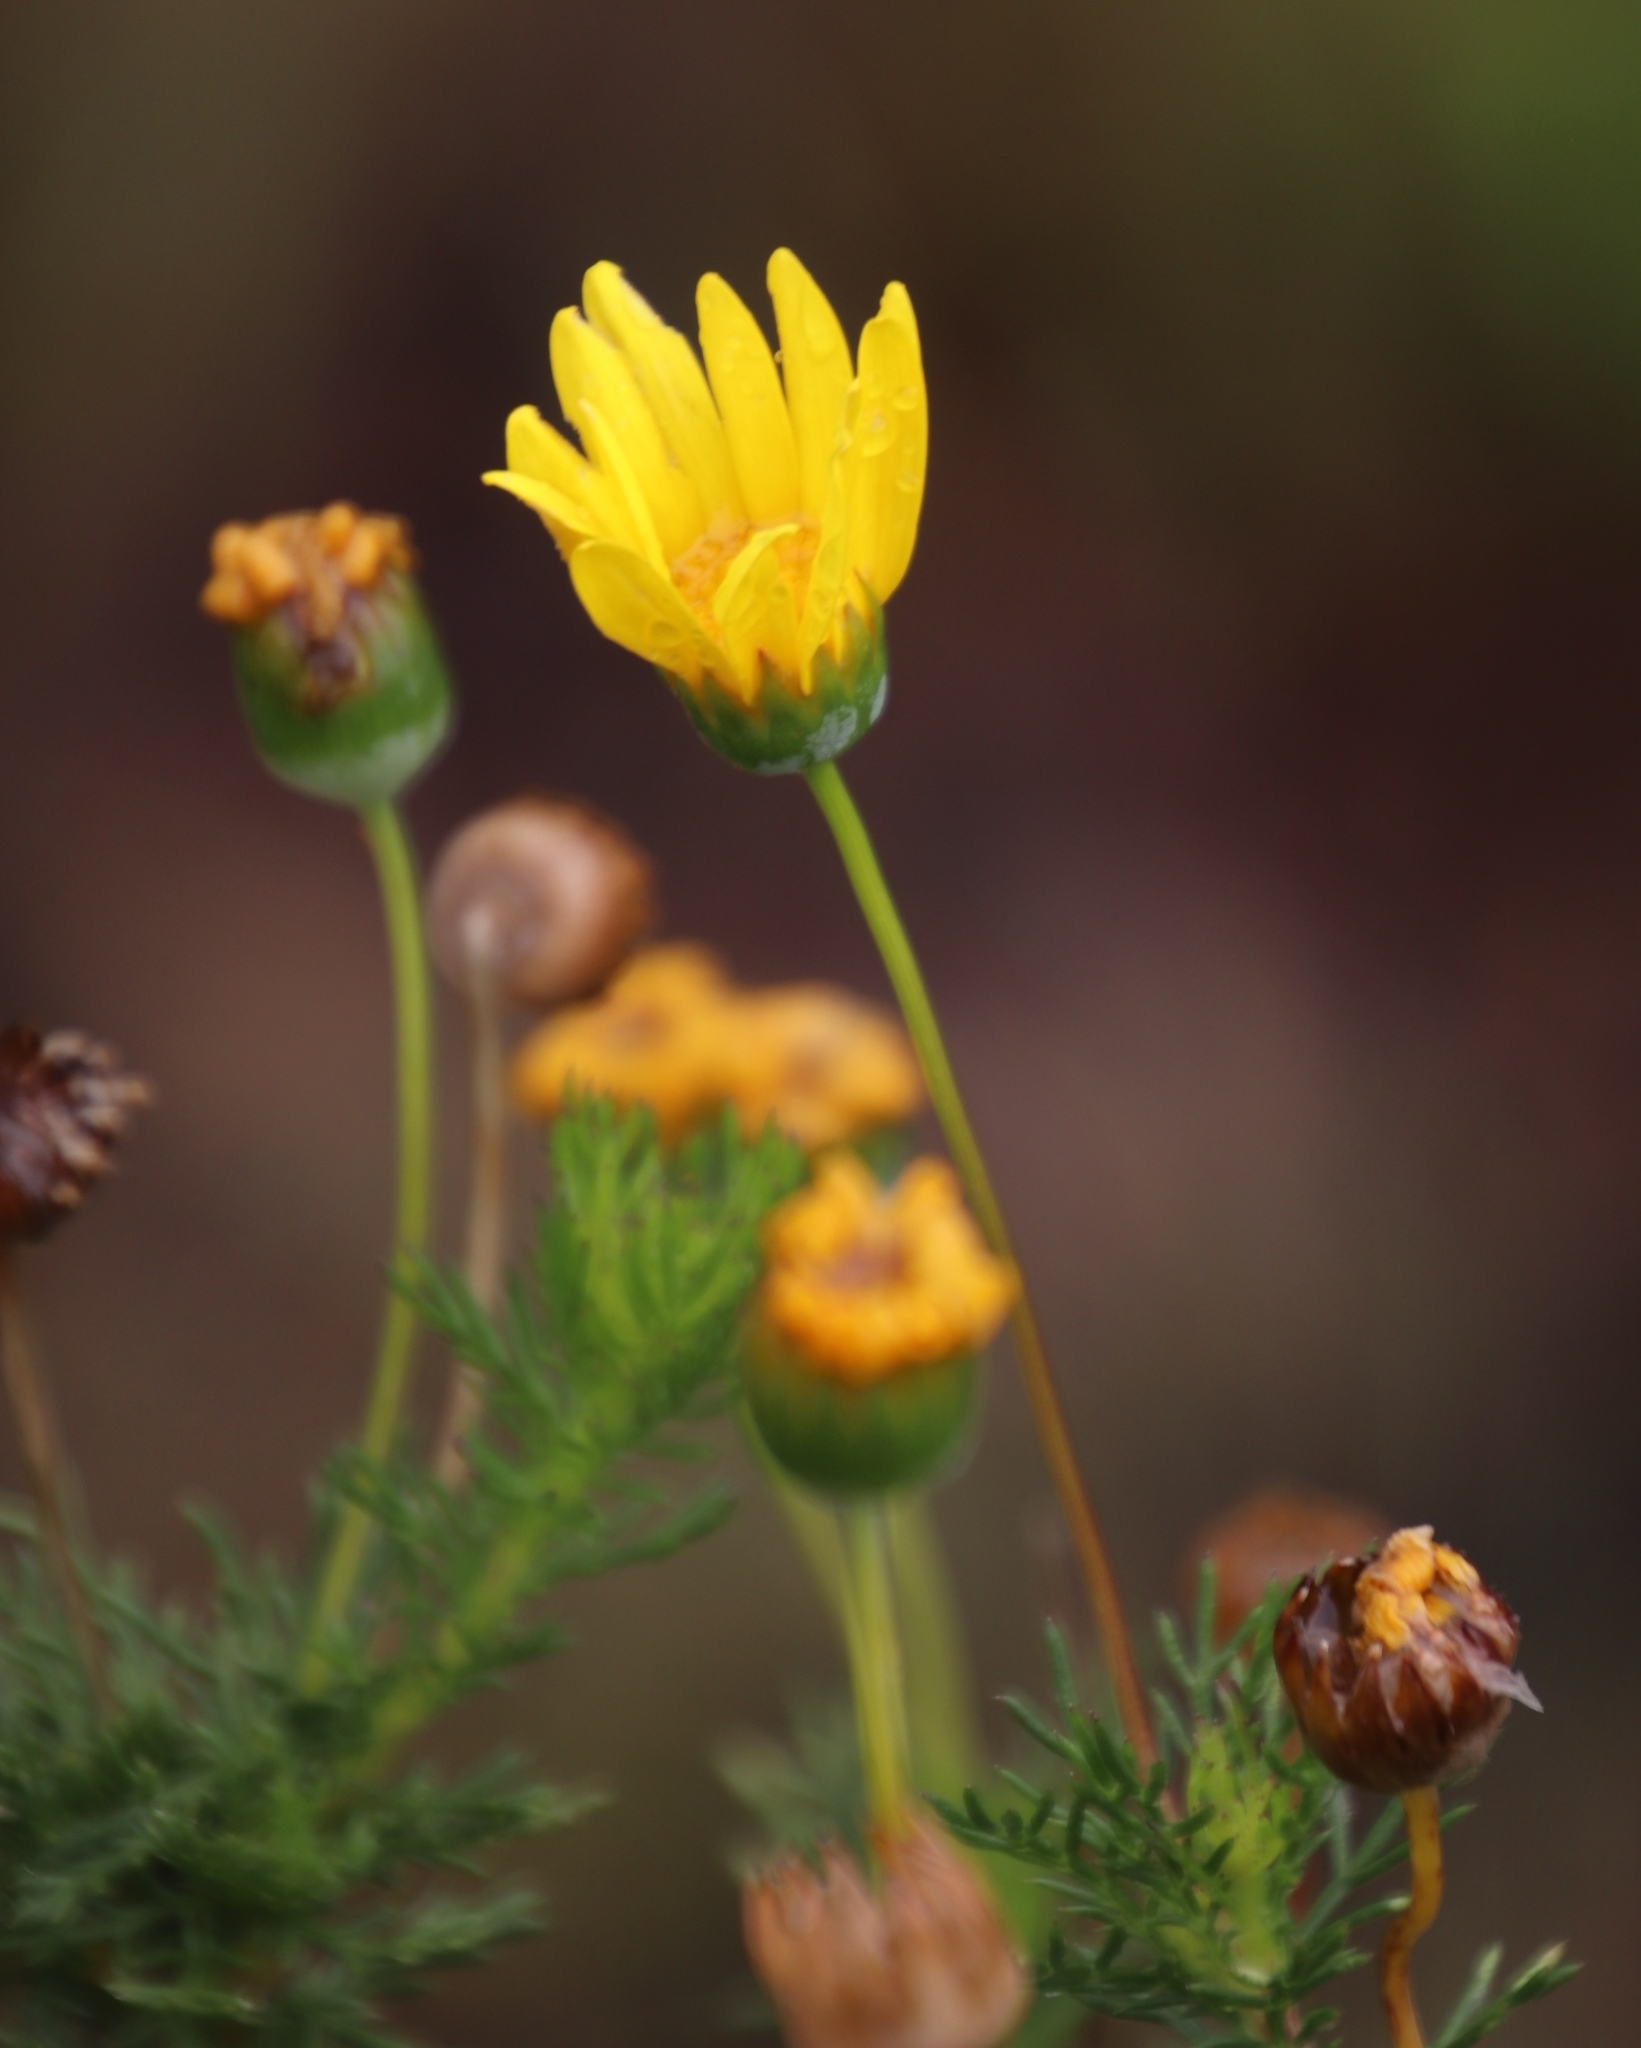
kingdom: Plantae
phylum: Tracheophyta
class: Magnoliopsida
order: Asterales
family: Asteraceae
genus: Euryops
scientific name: Euryops abrotanifolius
